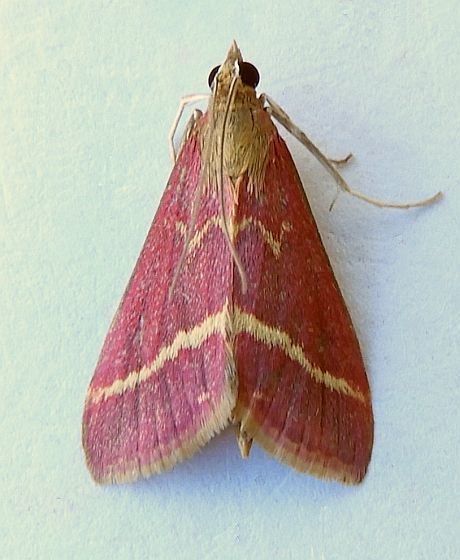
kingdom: Animalia
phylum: Arthropoda
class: Insecta
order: Lepidoptera
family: Crambidae
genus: Pyrausta
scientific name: Pyrausta volupialis
